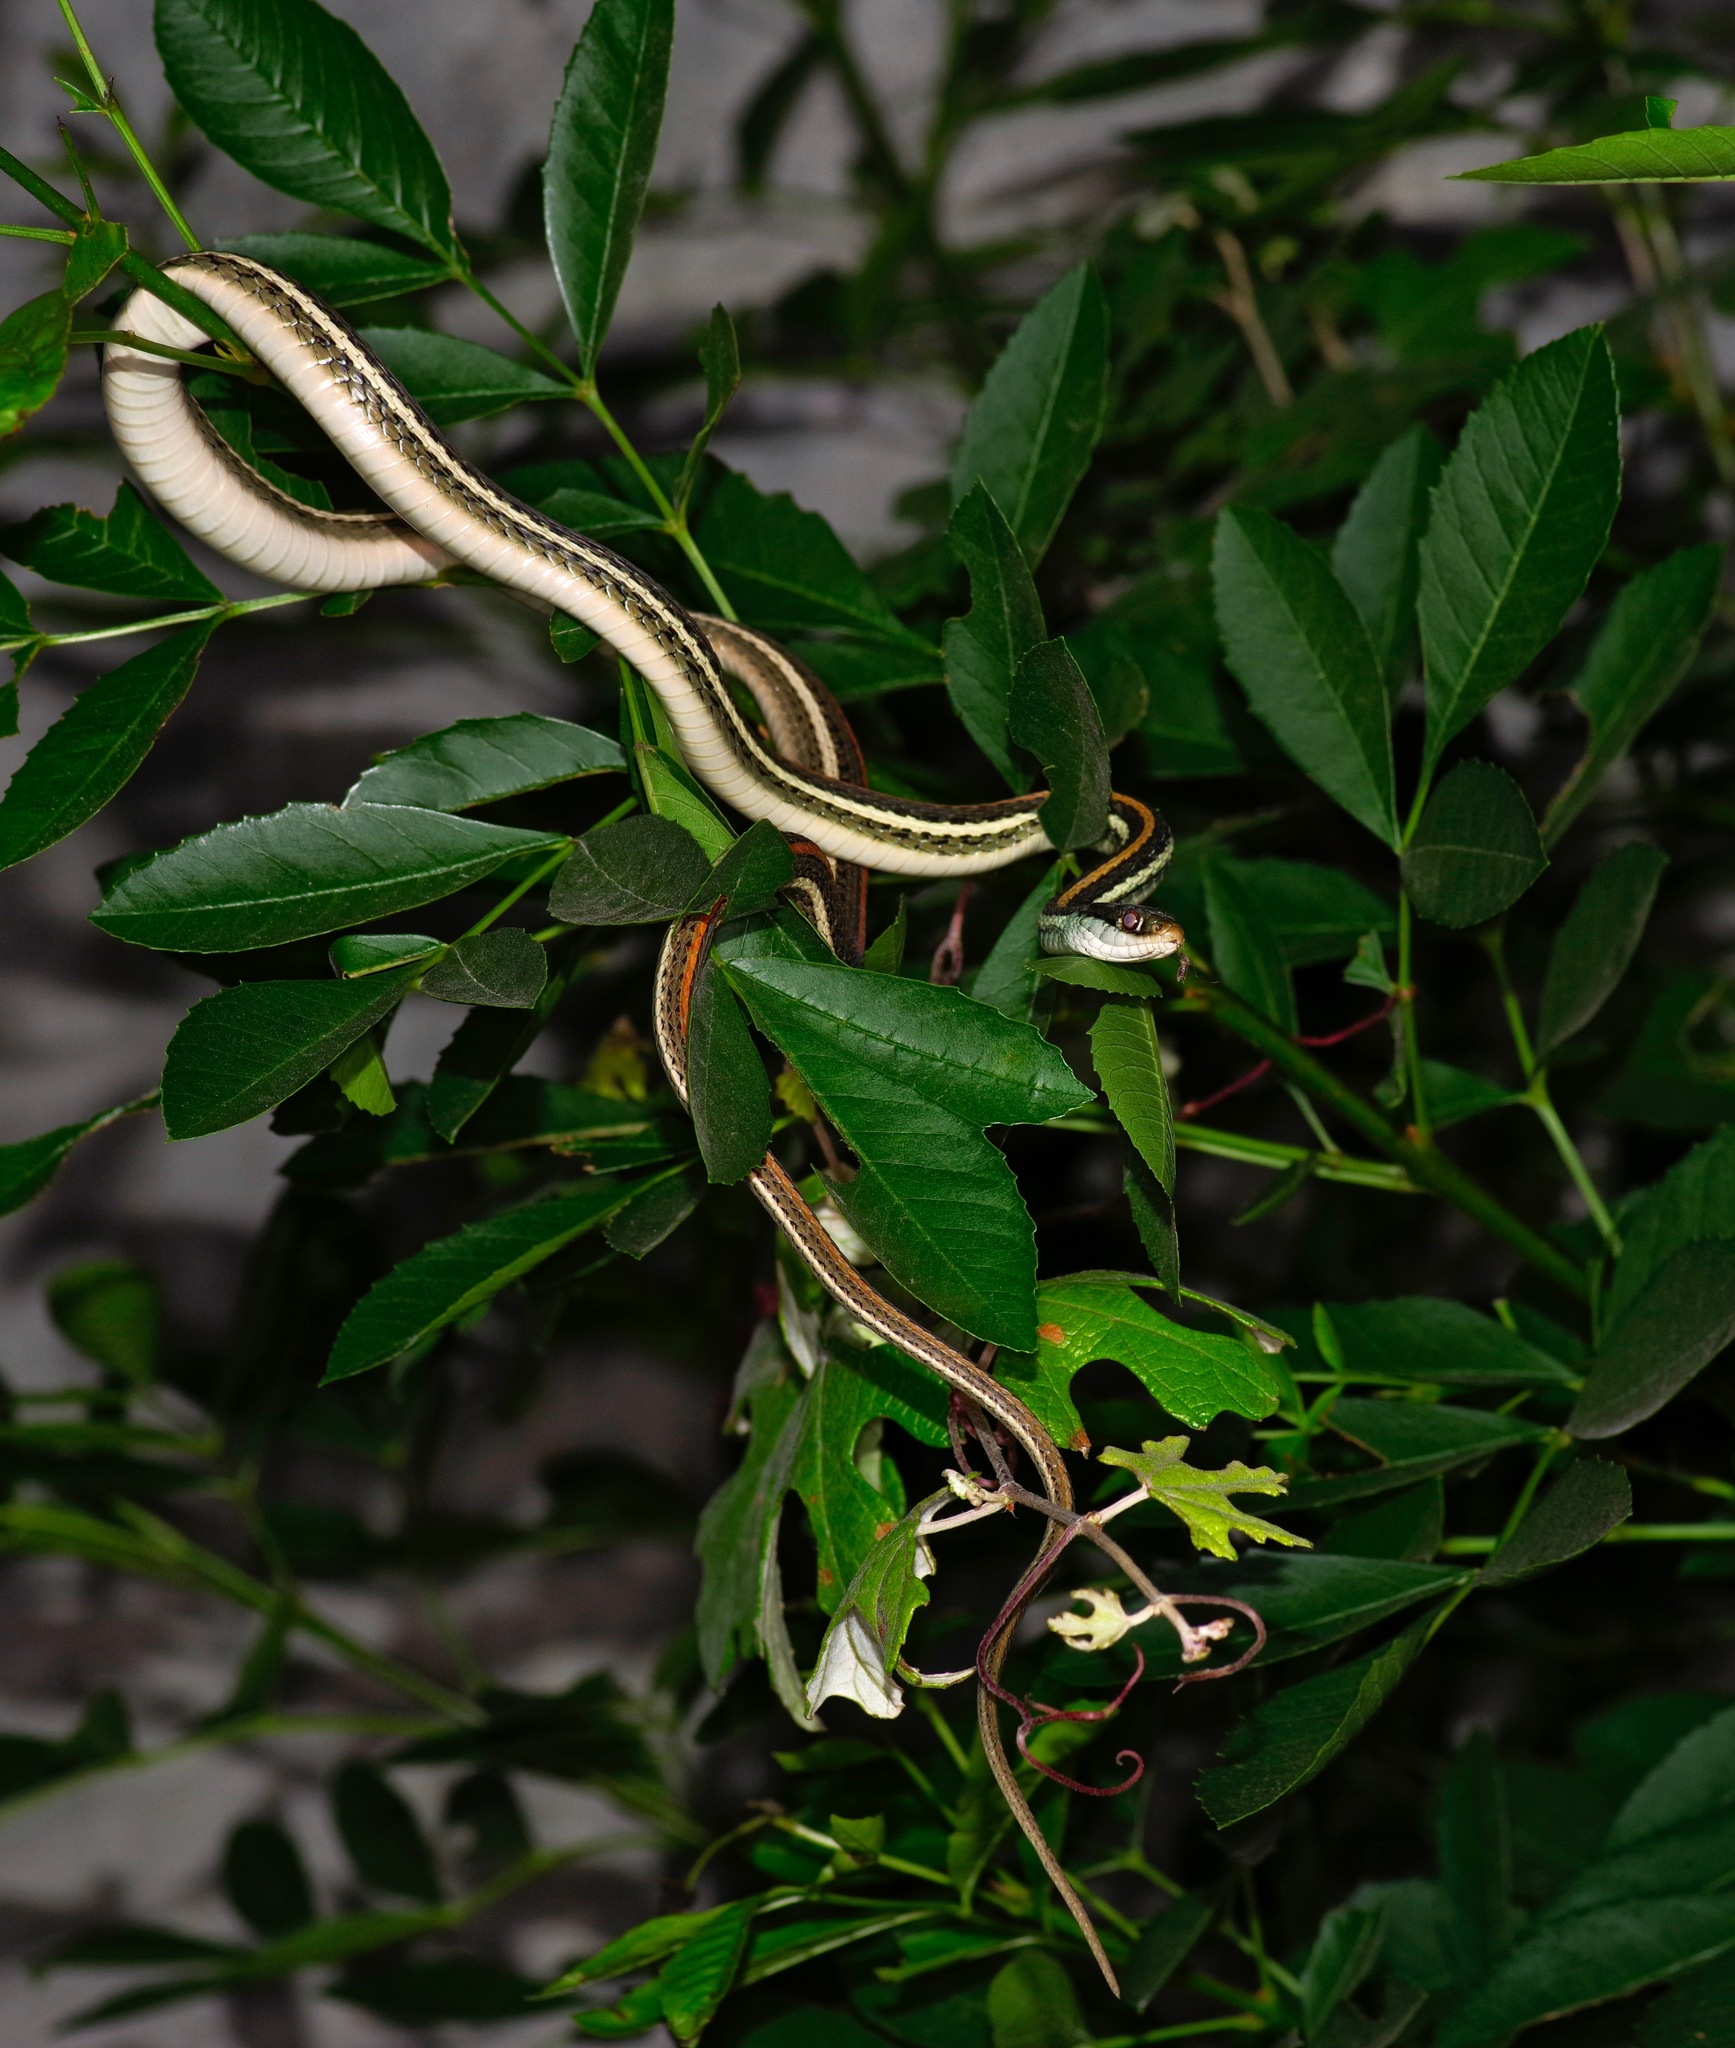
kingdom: Animalia
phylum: Chordata
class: Squamata
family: Colubridae
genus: Thamnophis
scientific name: Thamnophis proximus
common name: Western ribbon snake
